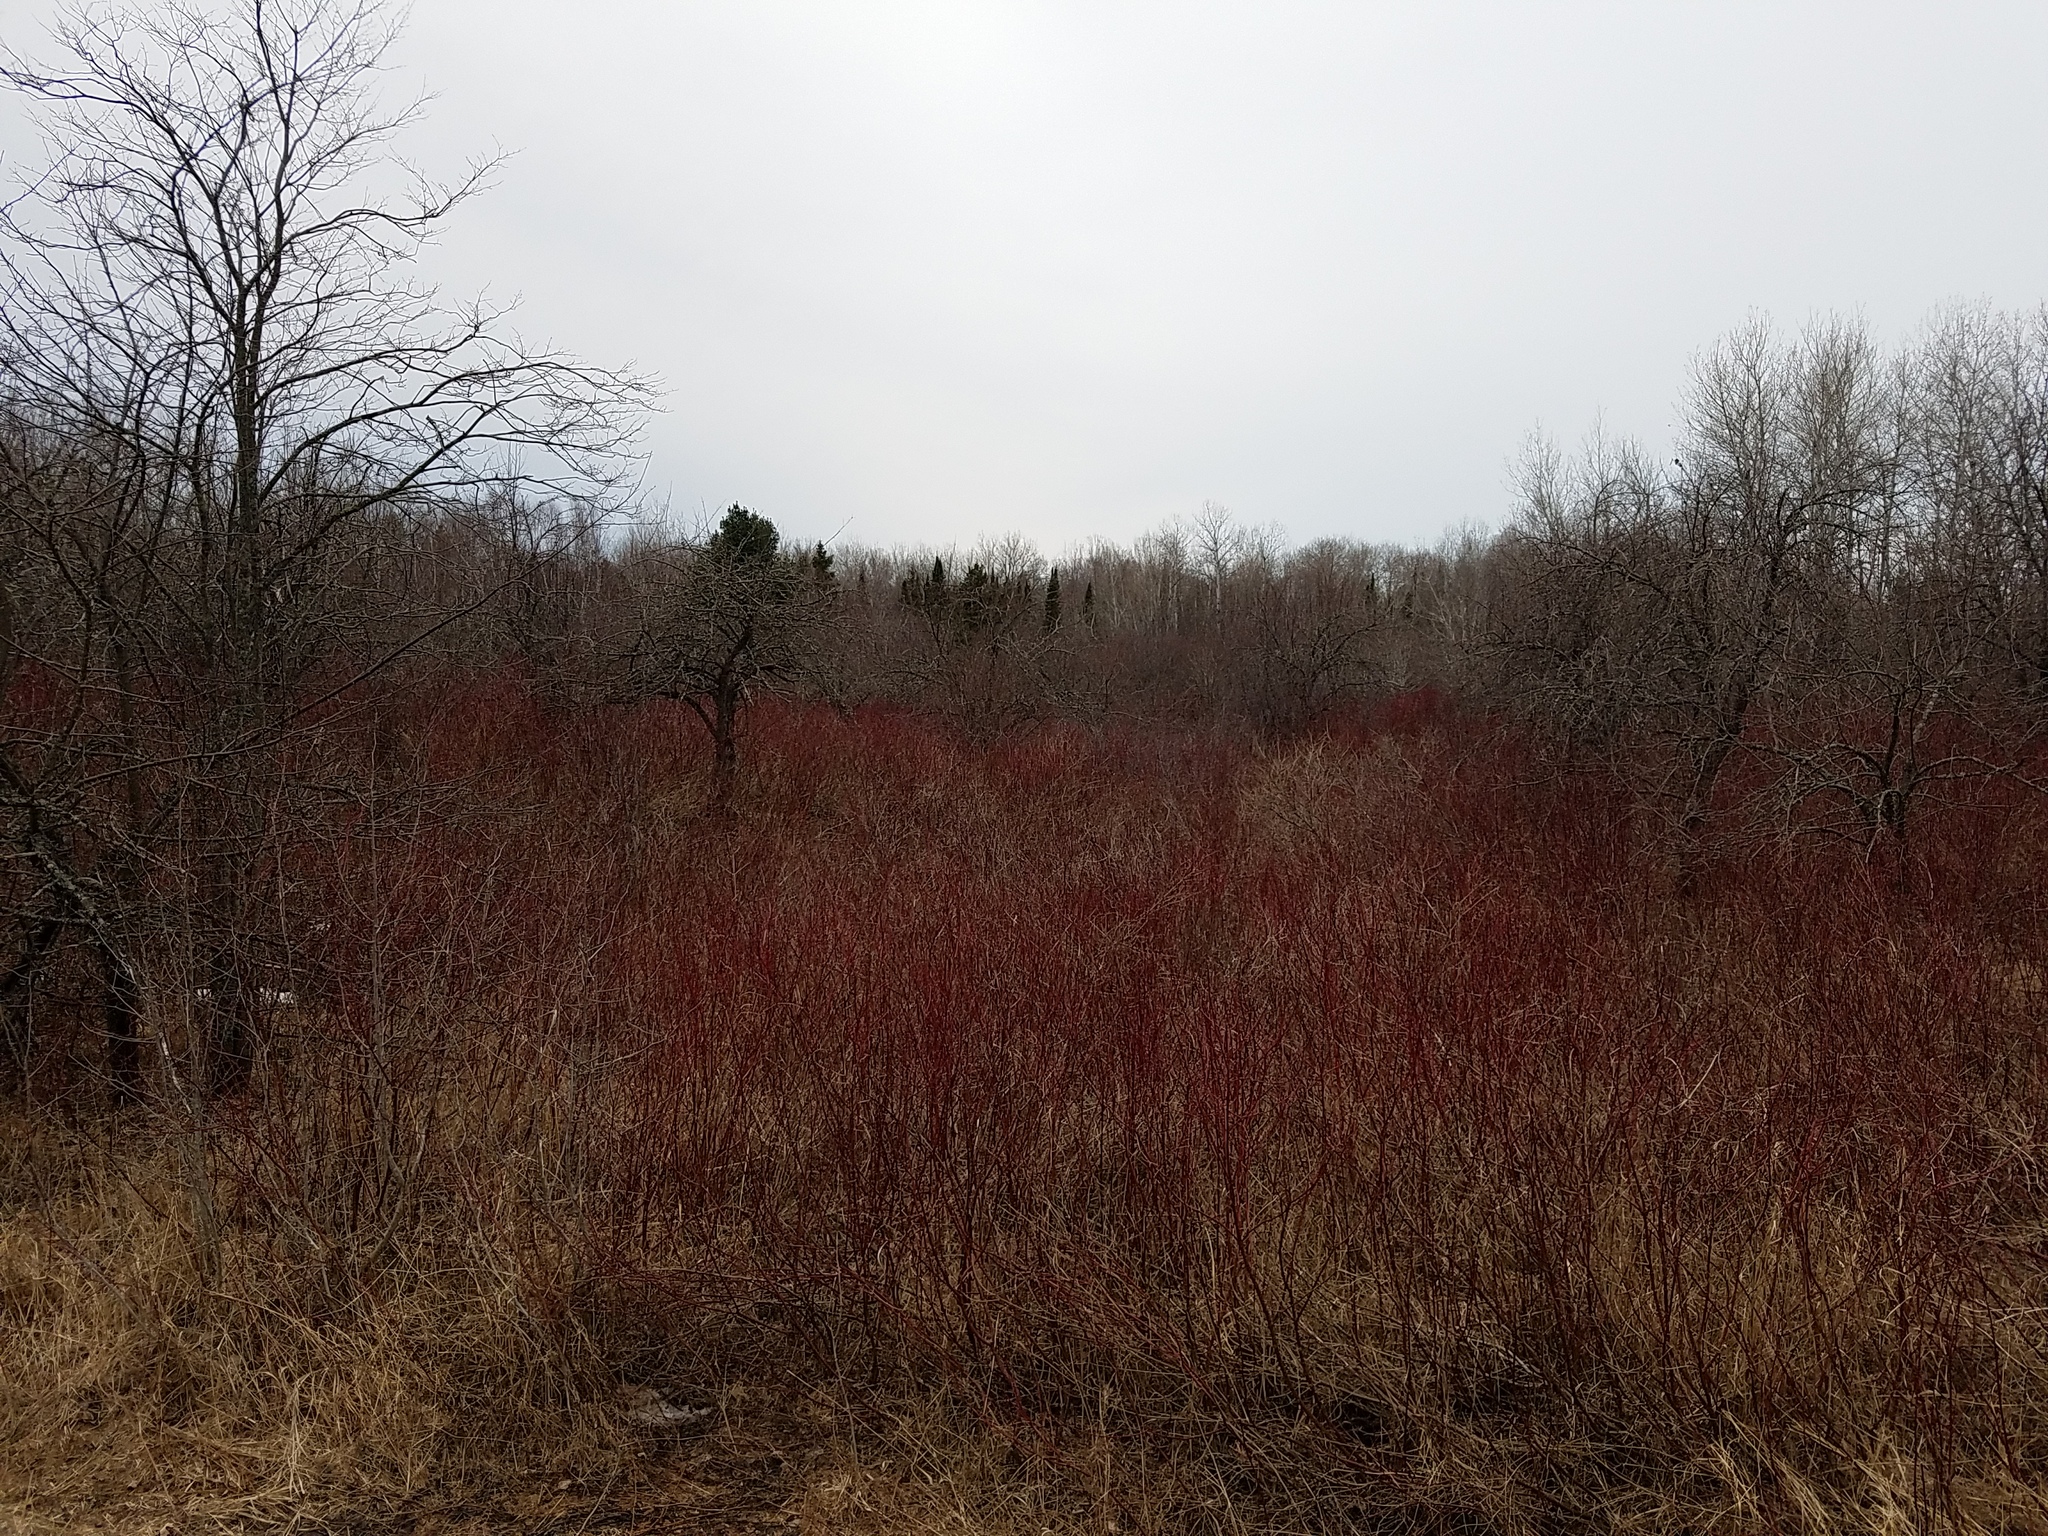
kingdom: Plantae
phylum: Tracheophyta
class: Magnoliopsida
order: Cornales
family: Cornaceae
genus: Cornus
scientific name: Cornus sericea
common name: Red-osier dogwood
